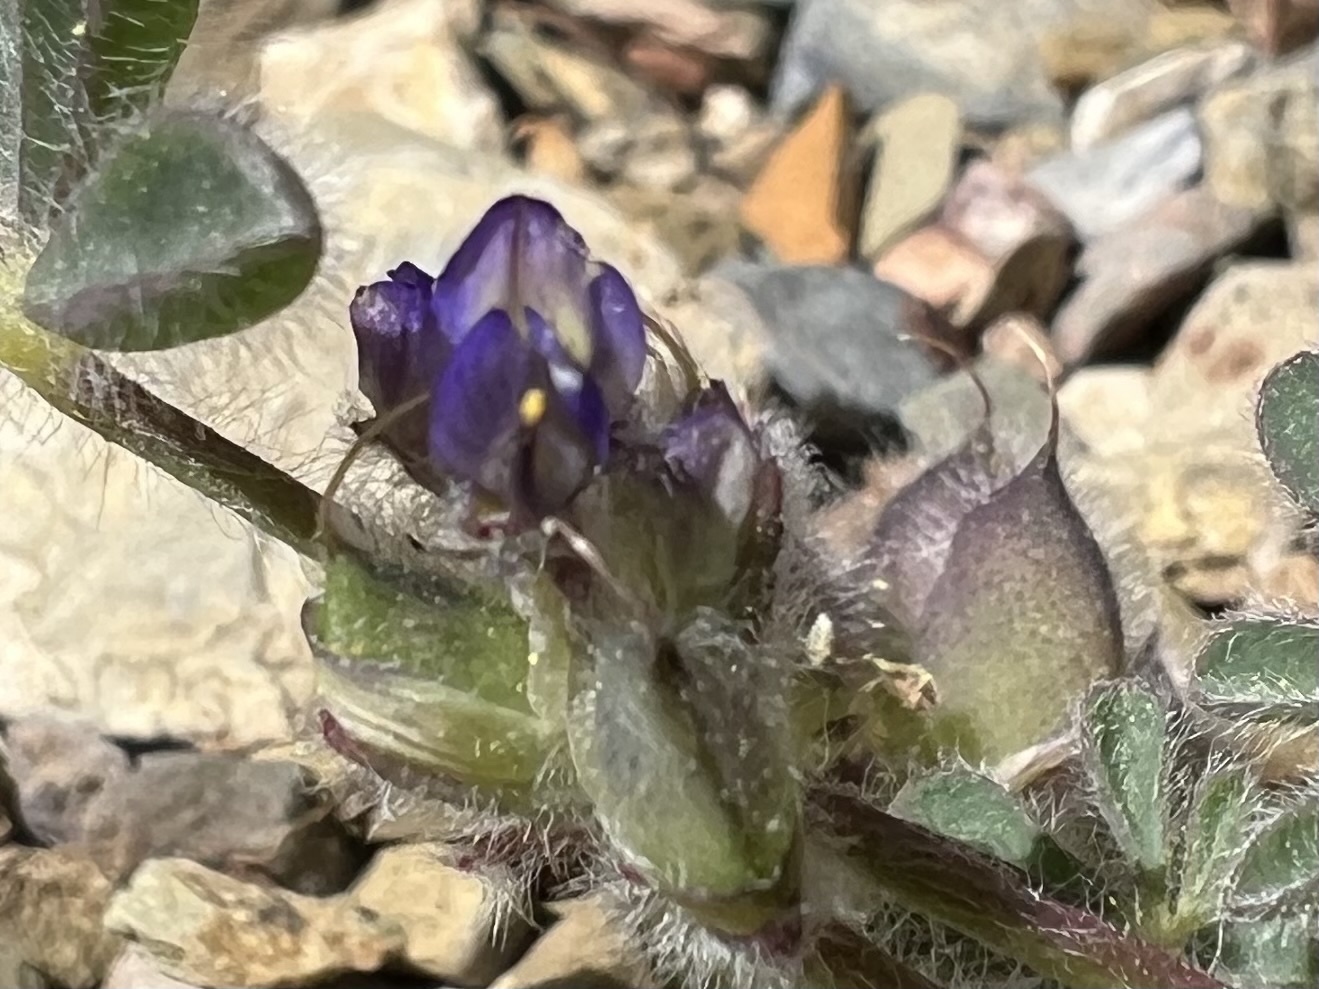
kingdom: Plantae
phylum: Tracheophyta
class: Magnoliopsida
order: Fabales
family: Fabaceae
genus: Lupinus
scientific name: Lupinus brevicaulis
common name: Sand lupine
